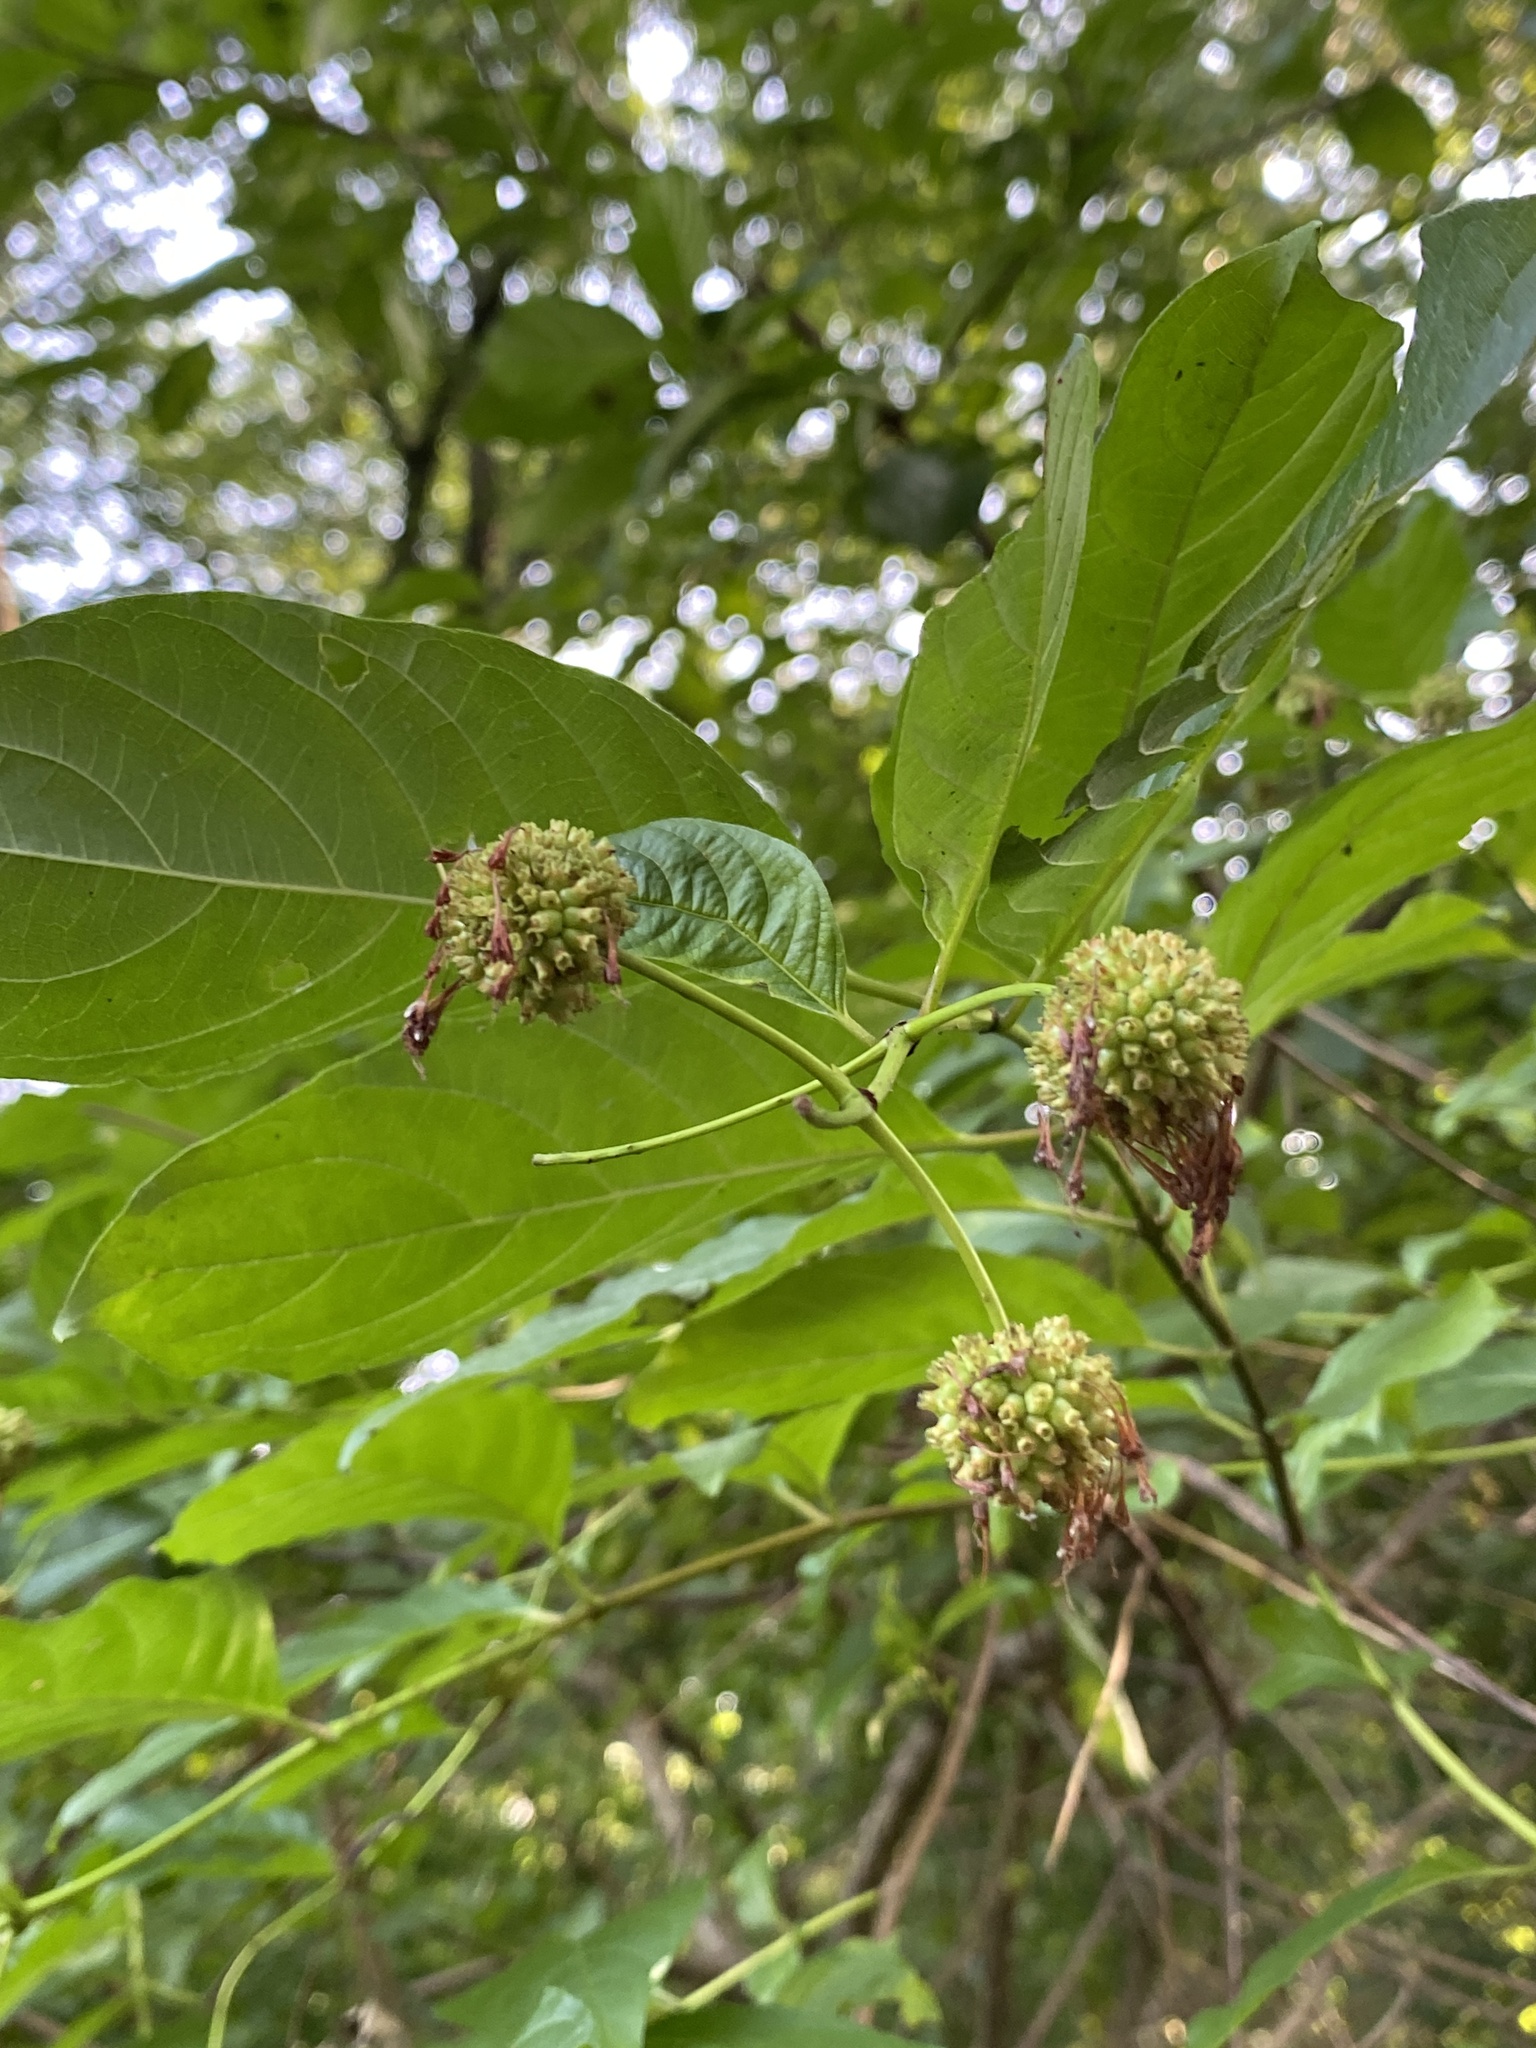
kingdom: Plantae
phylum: Tracheophyta
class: Magnoliopsida
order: Gentianales
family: Rubiaceae
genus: Cephalanthus
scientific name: Cephalanthus occidentalis
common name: Button-willow
